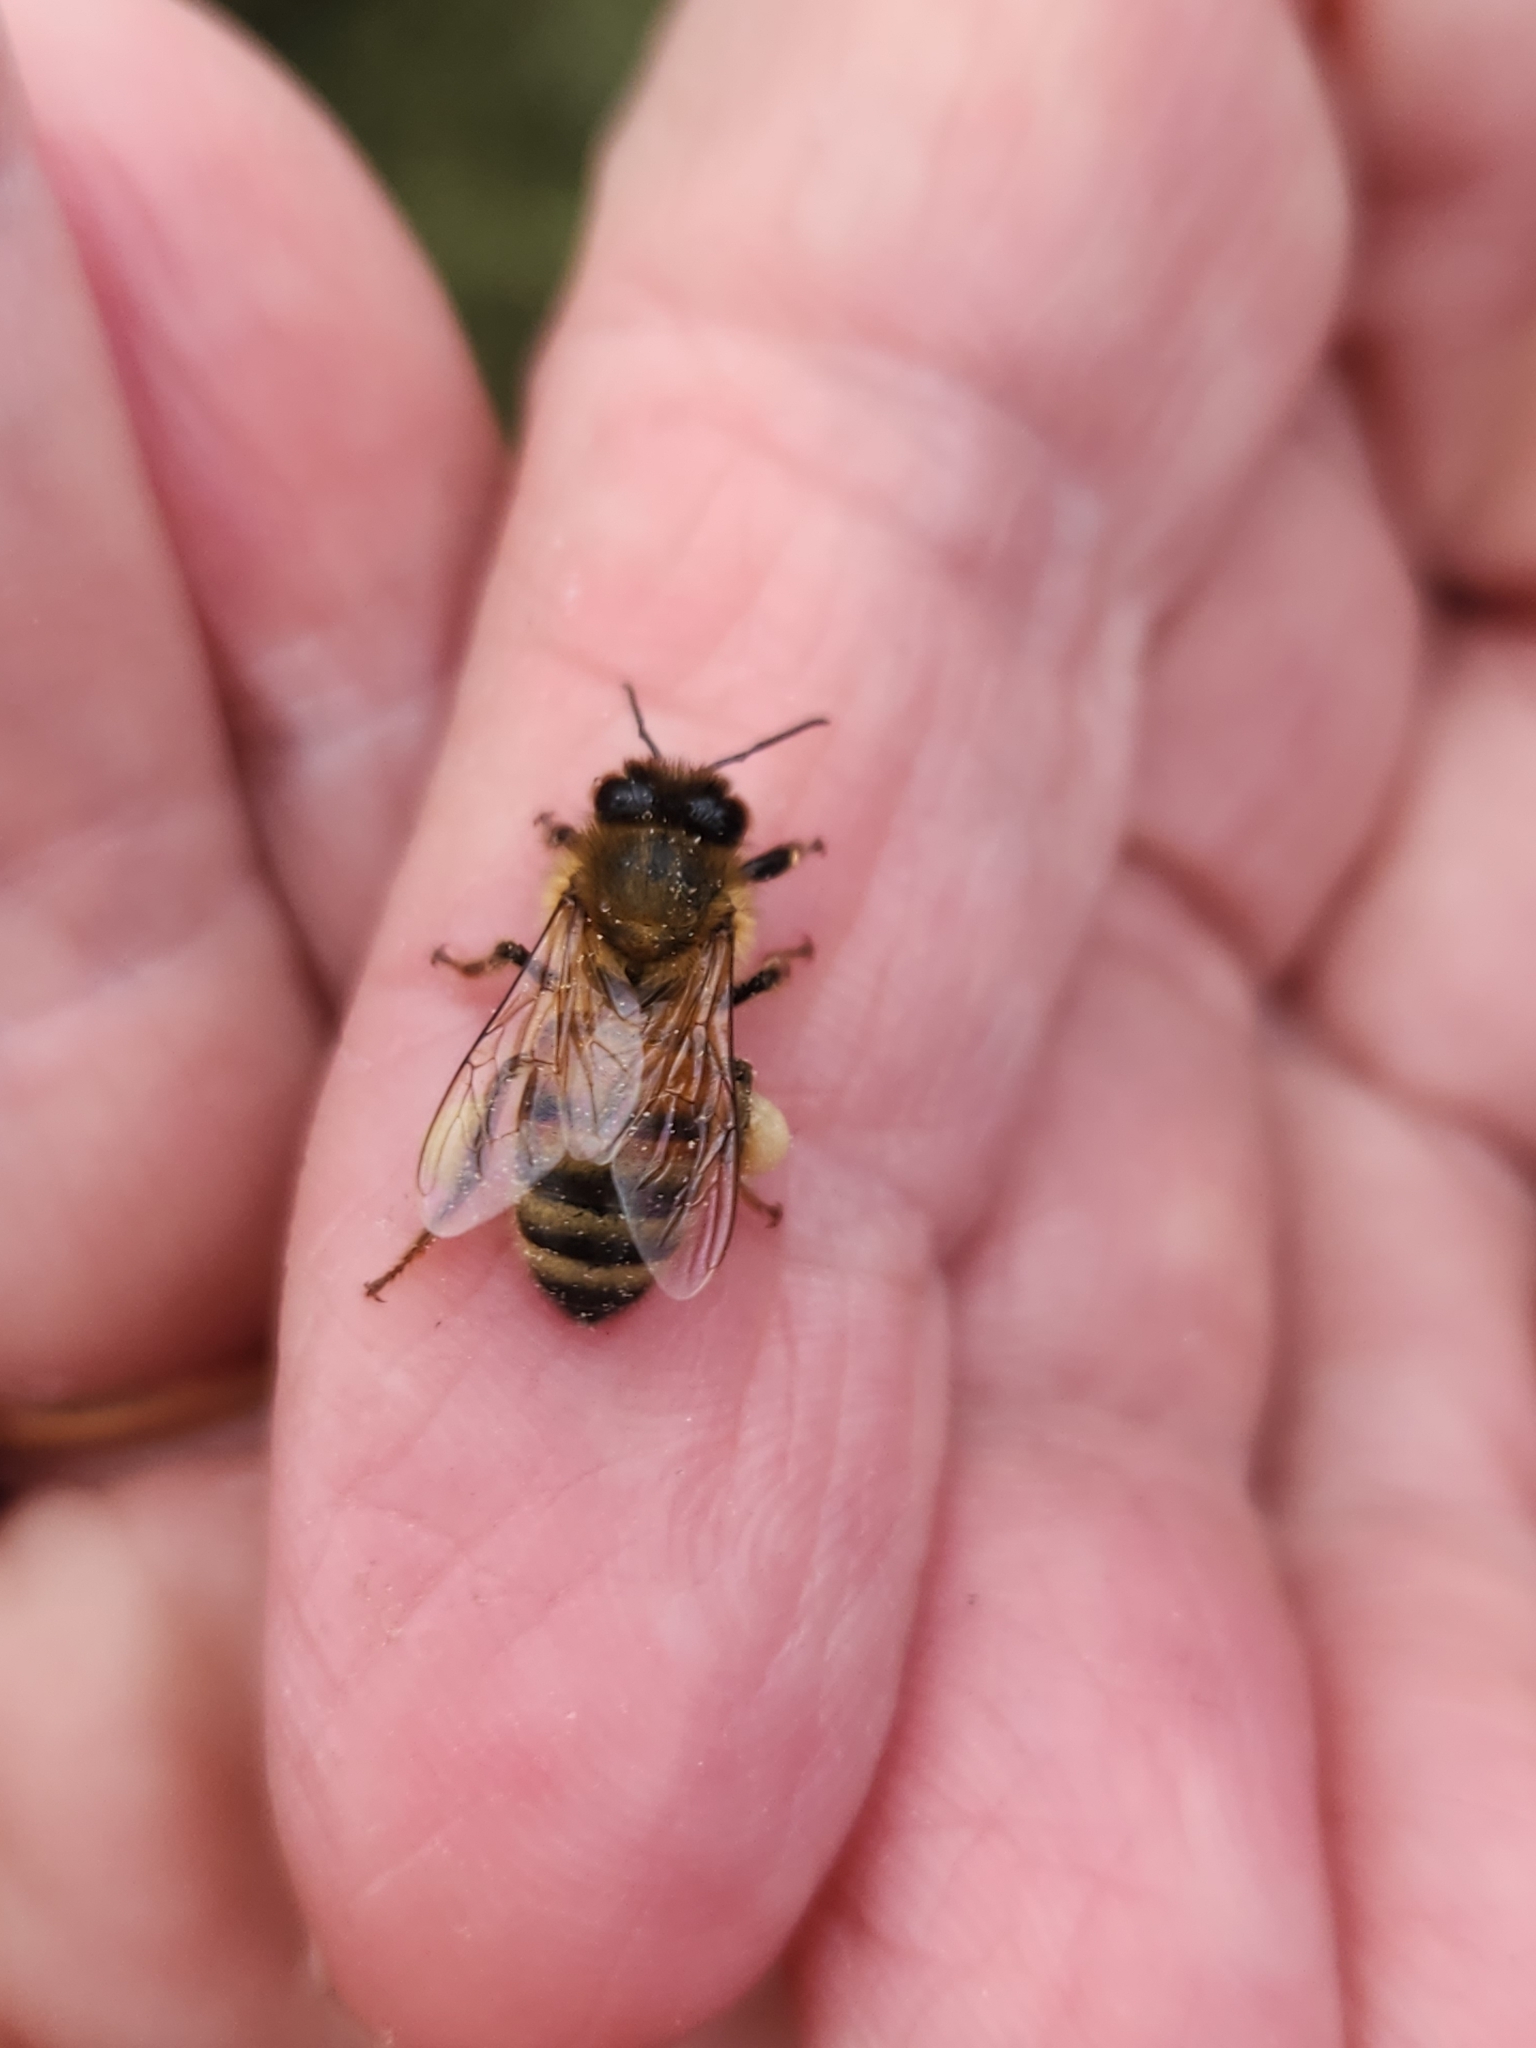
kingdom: Animalia
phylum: Arthropoda
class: Insecta
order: Hymenoptera
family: Apidae
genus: Apis
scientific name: Apis mellifera
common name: Honey bee
